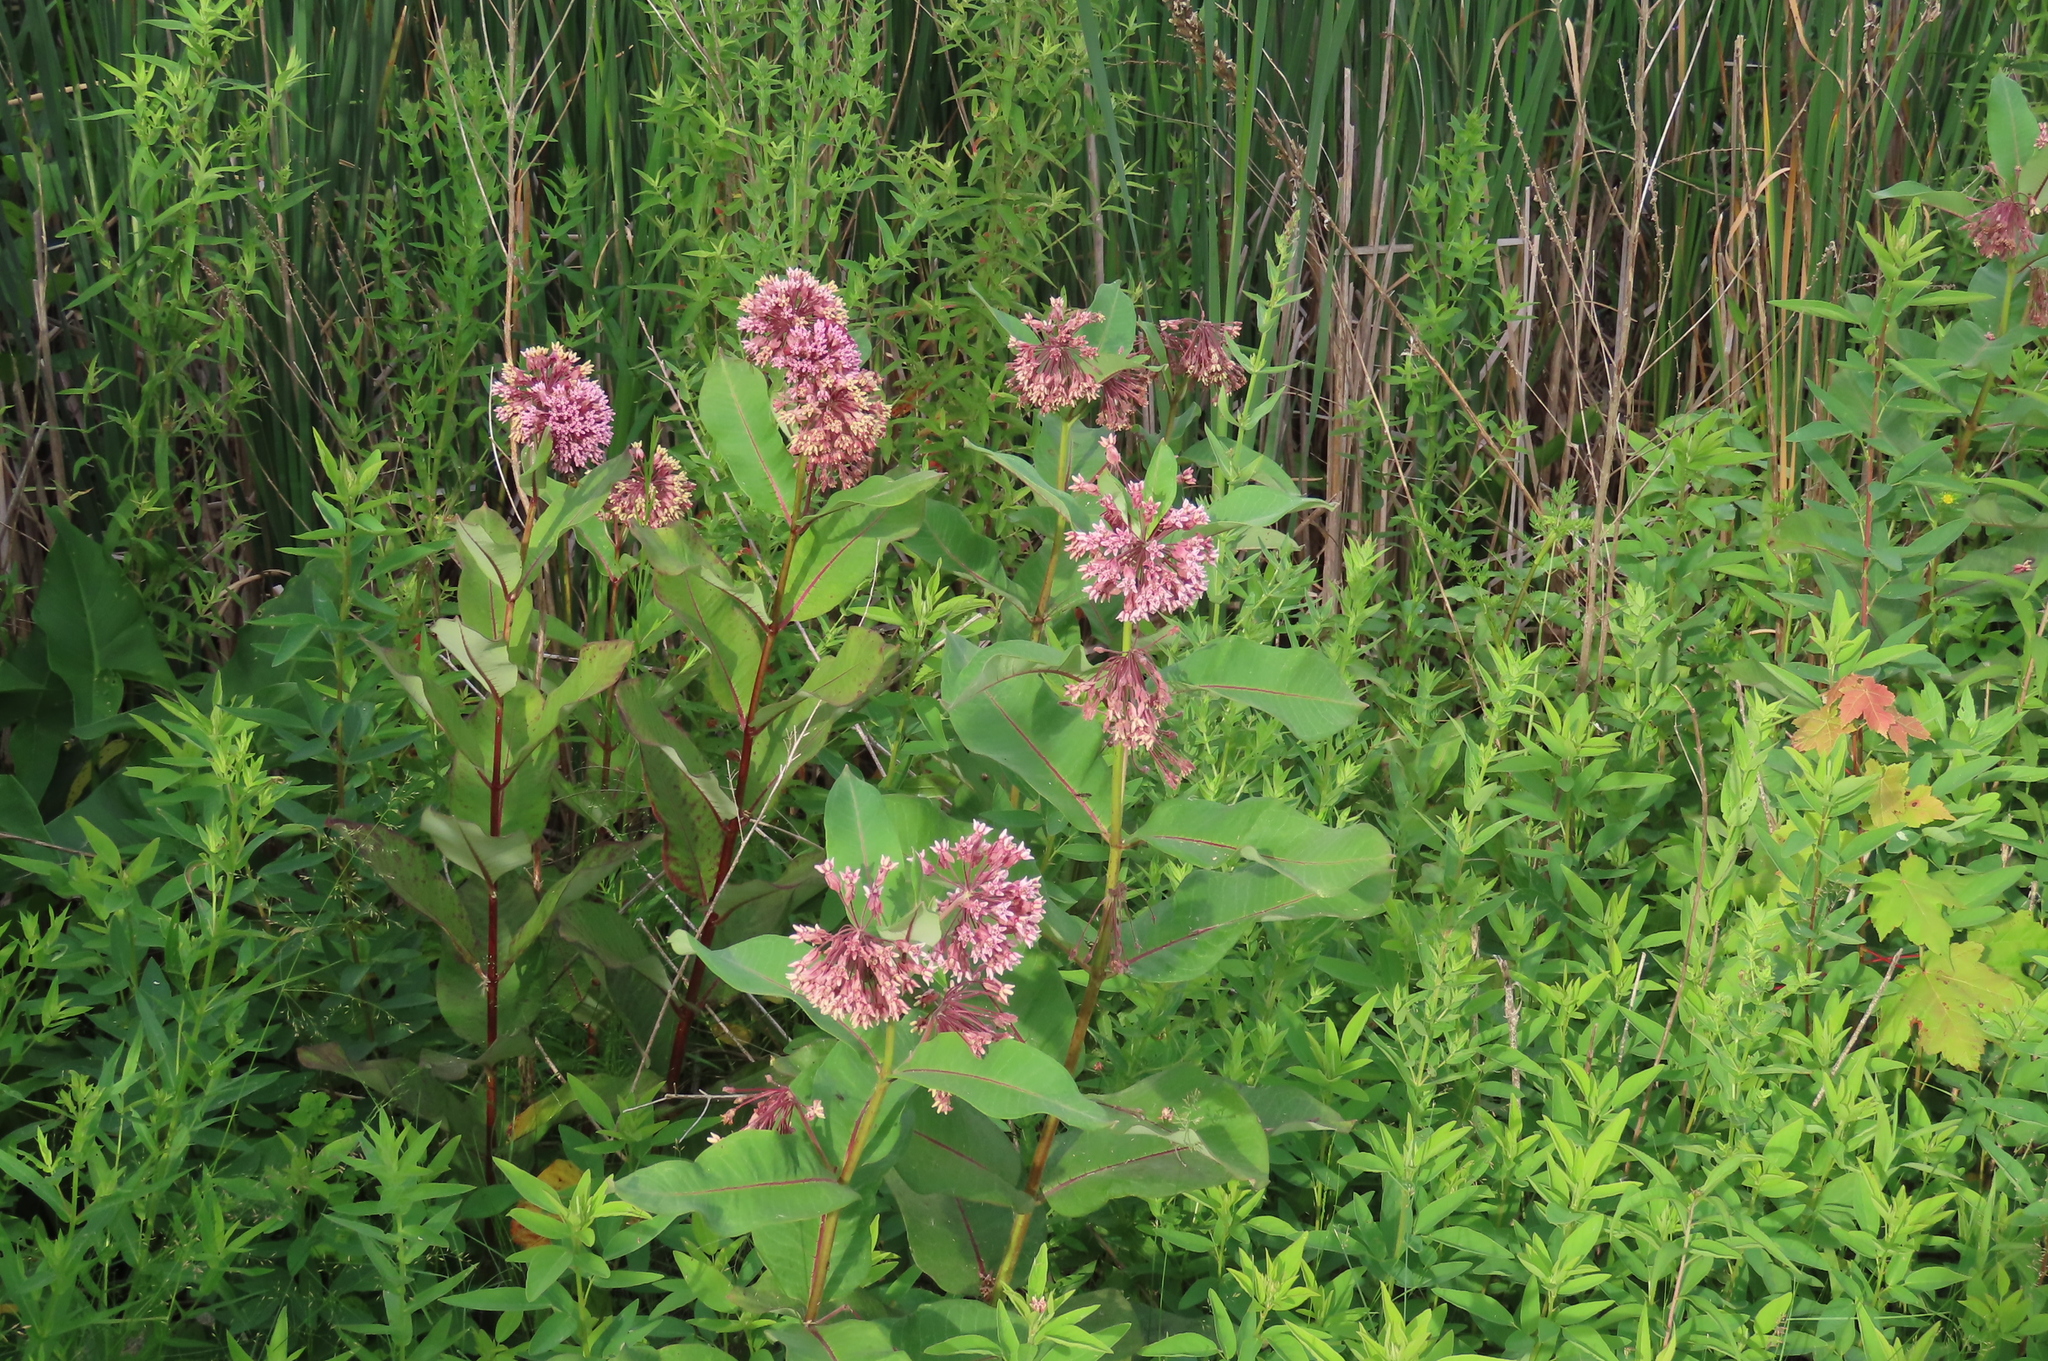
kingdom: Plantae
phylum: Tracheophyta
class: Magnoliopsida
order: Gentianales
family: Apocynaceae
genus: Asclepias
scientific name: Asclepias syriaca
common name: Common milkweed
